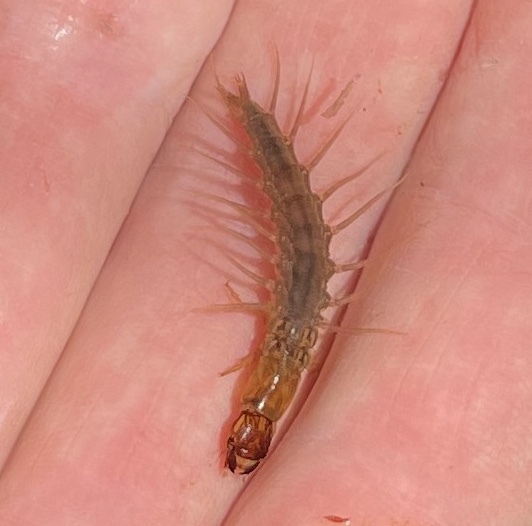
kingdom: Animalia
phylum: Arthropoda
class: Insecta
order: Megaloptera
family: Corydalidae
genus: Neohermes
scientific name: Neohermes californicus
